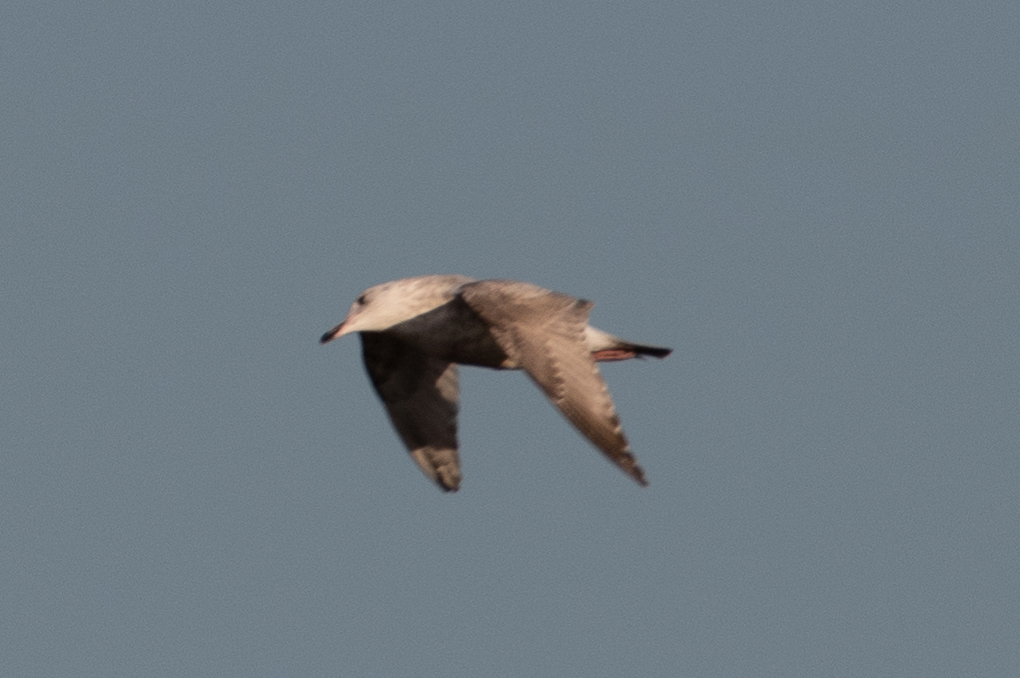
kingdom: Animalia
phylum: Chordata
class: Aves
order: Charadriiformes
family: Laridae
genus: Larus
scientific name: Larus argentatus
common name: Herring gull
